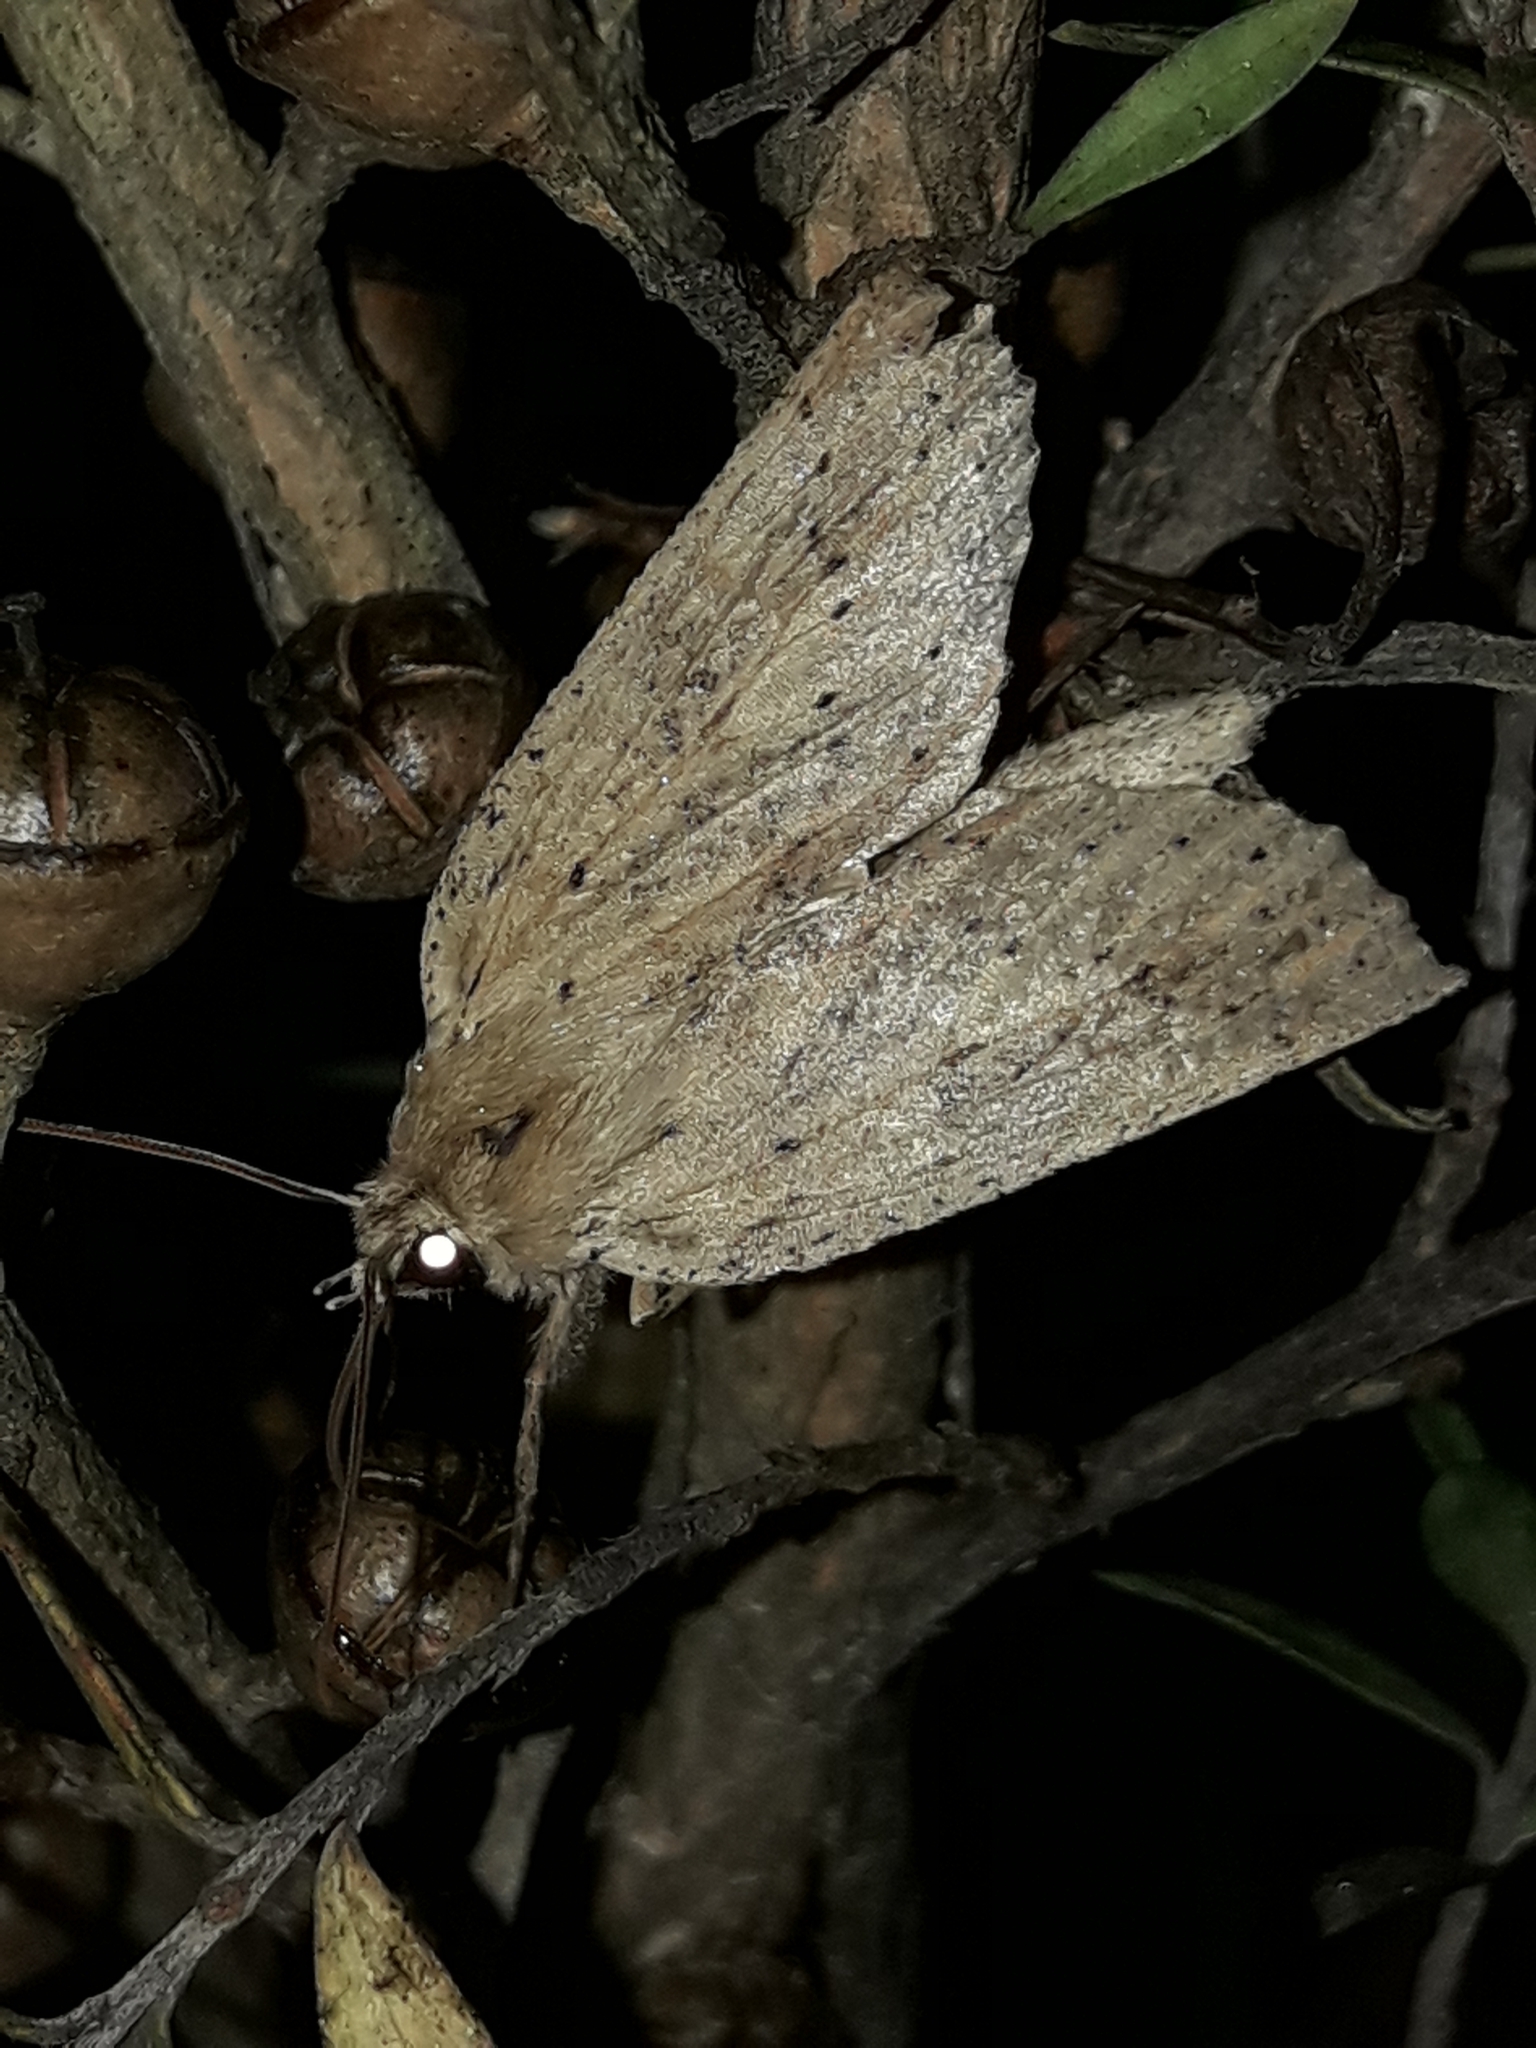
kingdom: Animalia
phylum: Arthropoda
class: Insecta
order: Lepidoptera
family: Geometridae
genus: Declana
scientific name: Declana leptomera
